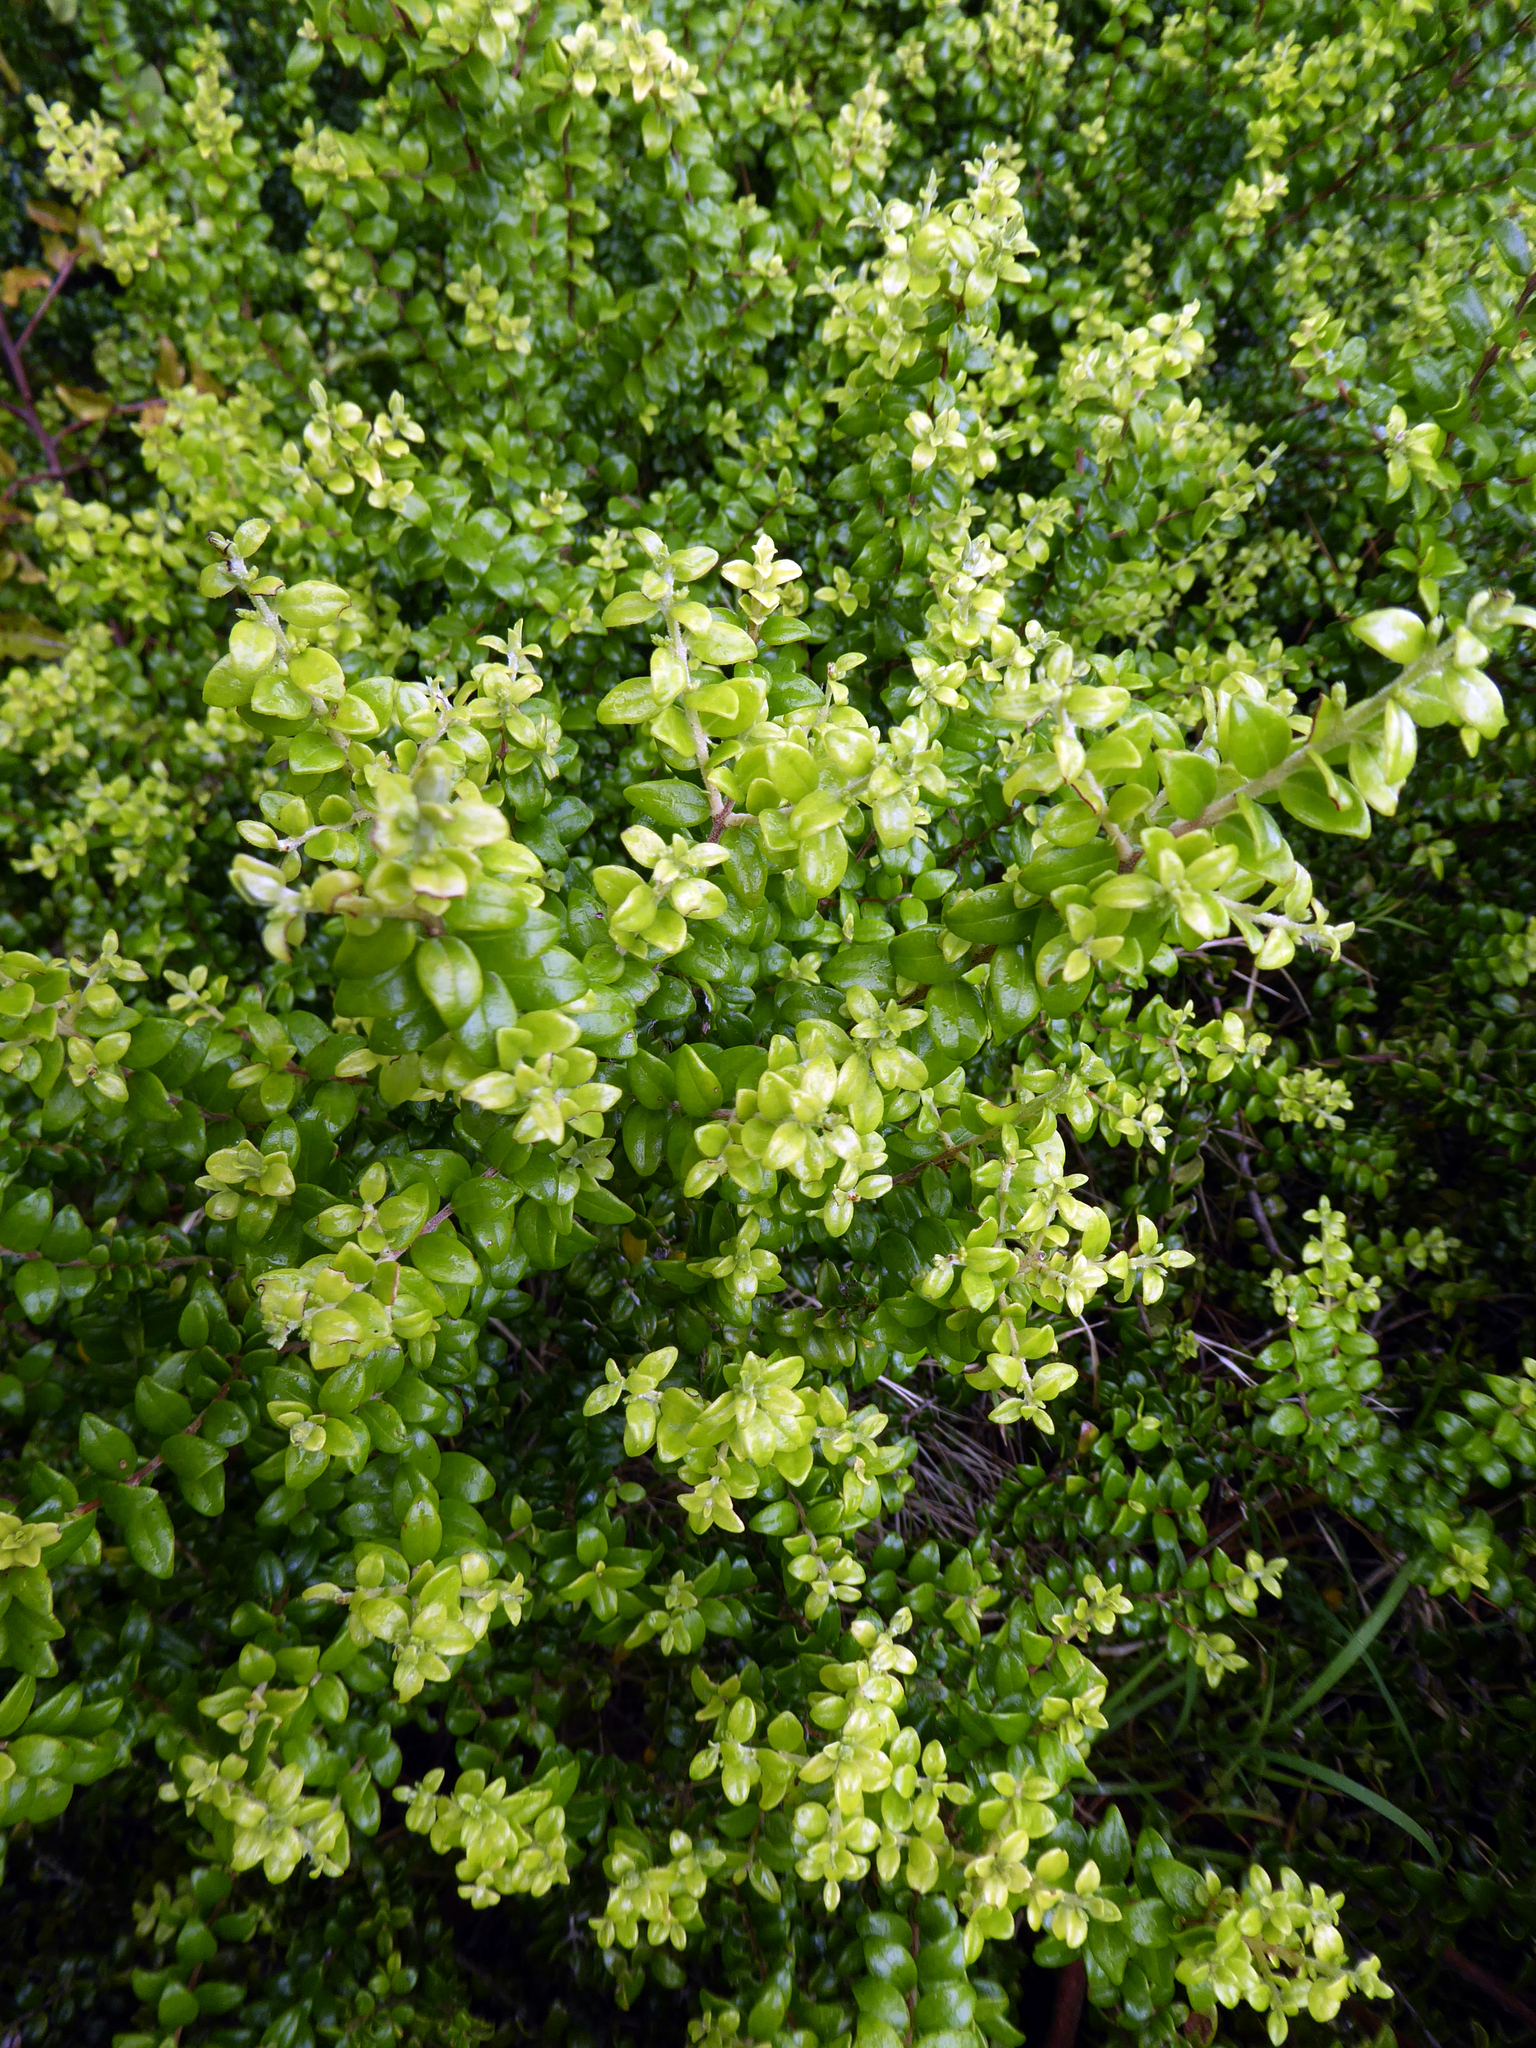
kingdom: Plantae
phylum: Tracheophyta
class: Magnoliopsida
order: Myrtales
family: Myrtaceae
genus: Metrosideros
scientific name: Metrosideros perforata
